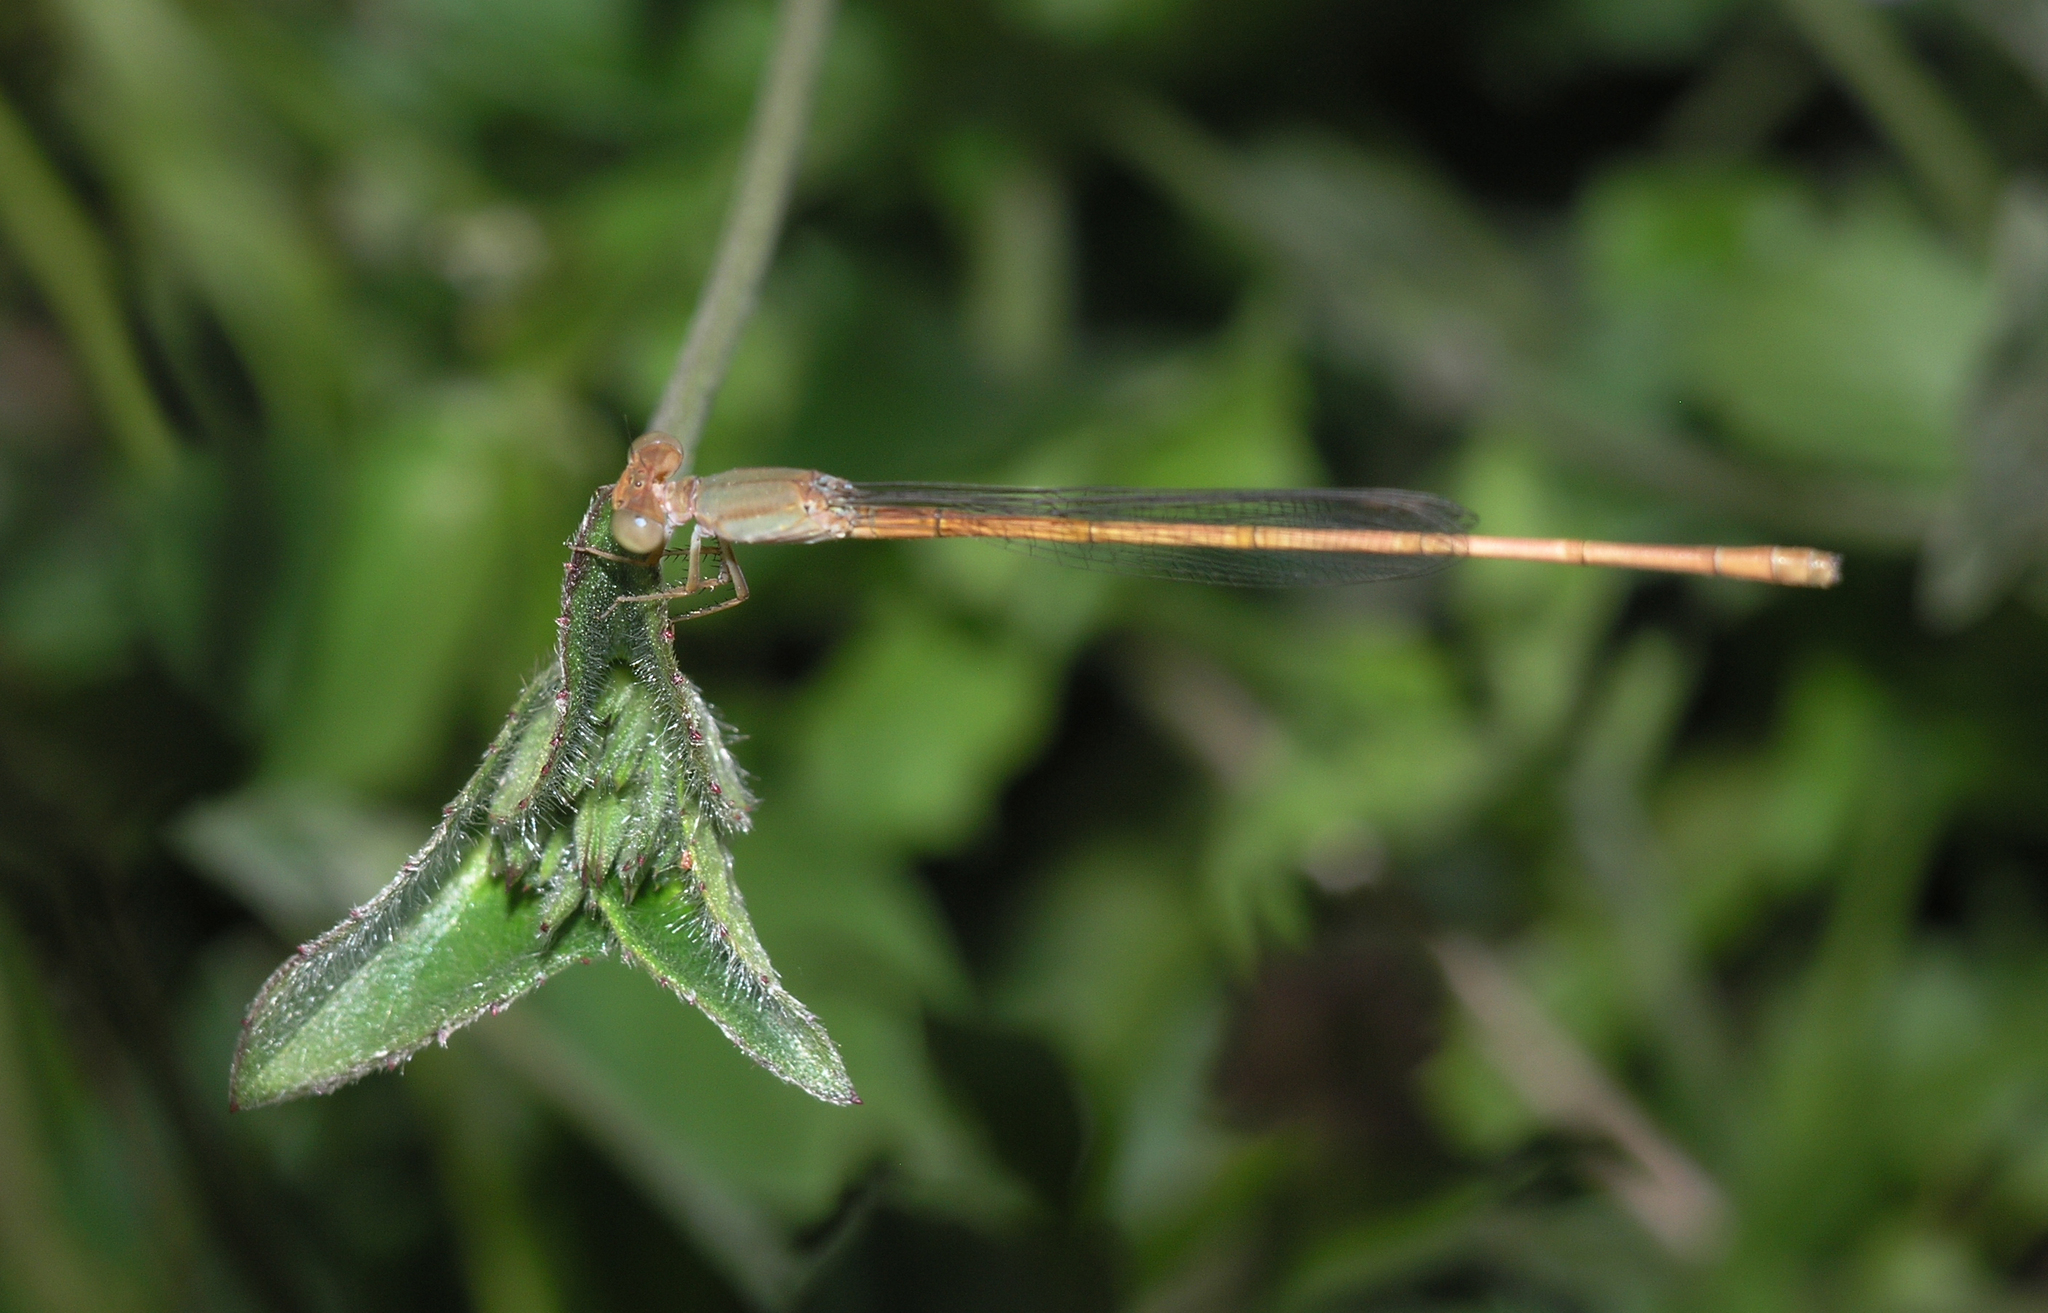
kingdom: Animalia
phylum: Arthropoda
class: Insecta
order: Odonata
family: Coenagrionidae
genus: Ceriagrion
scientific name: Ceriagrion olivaceum
